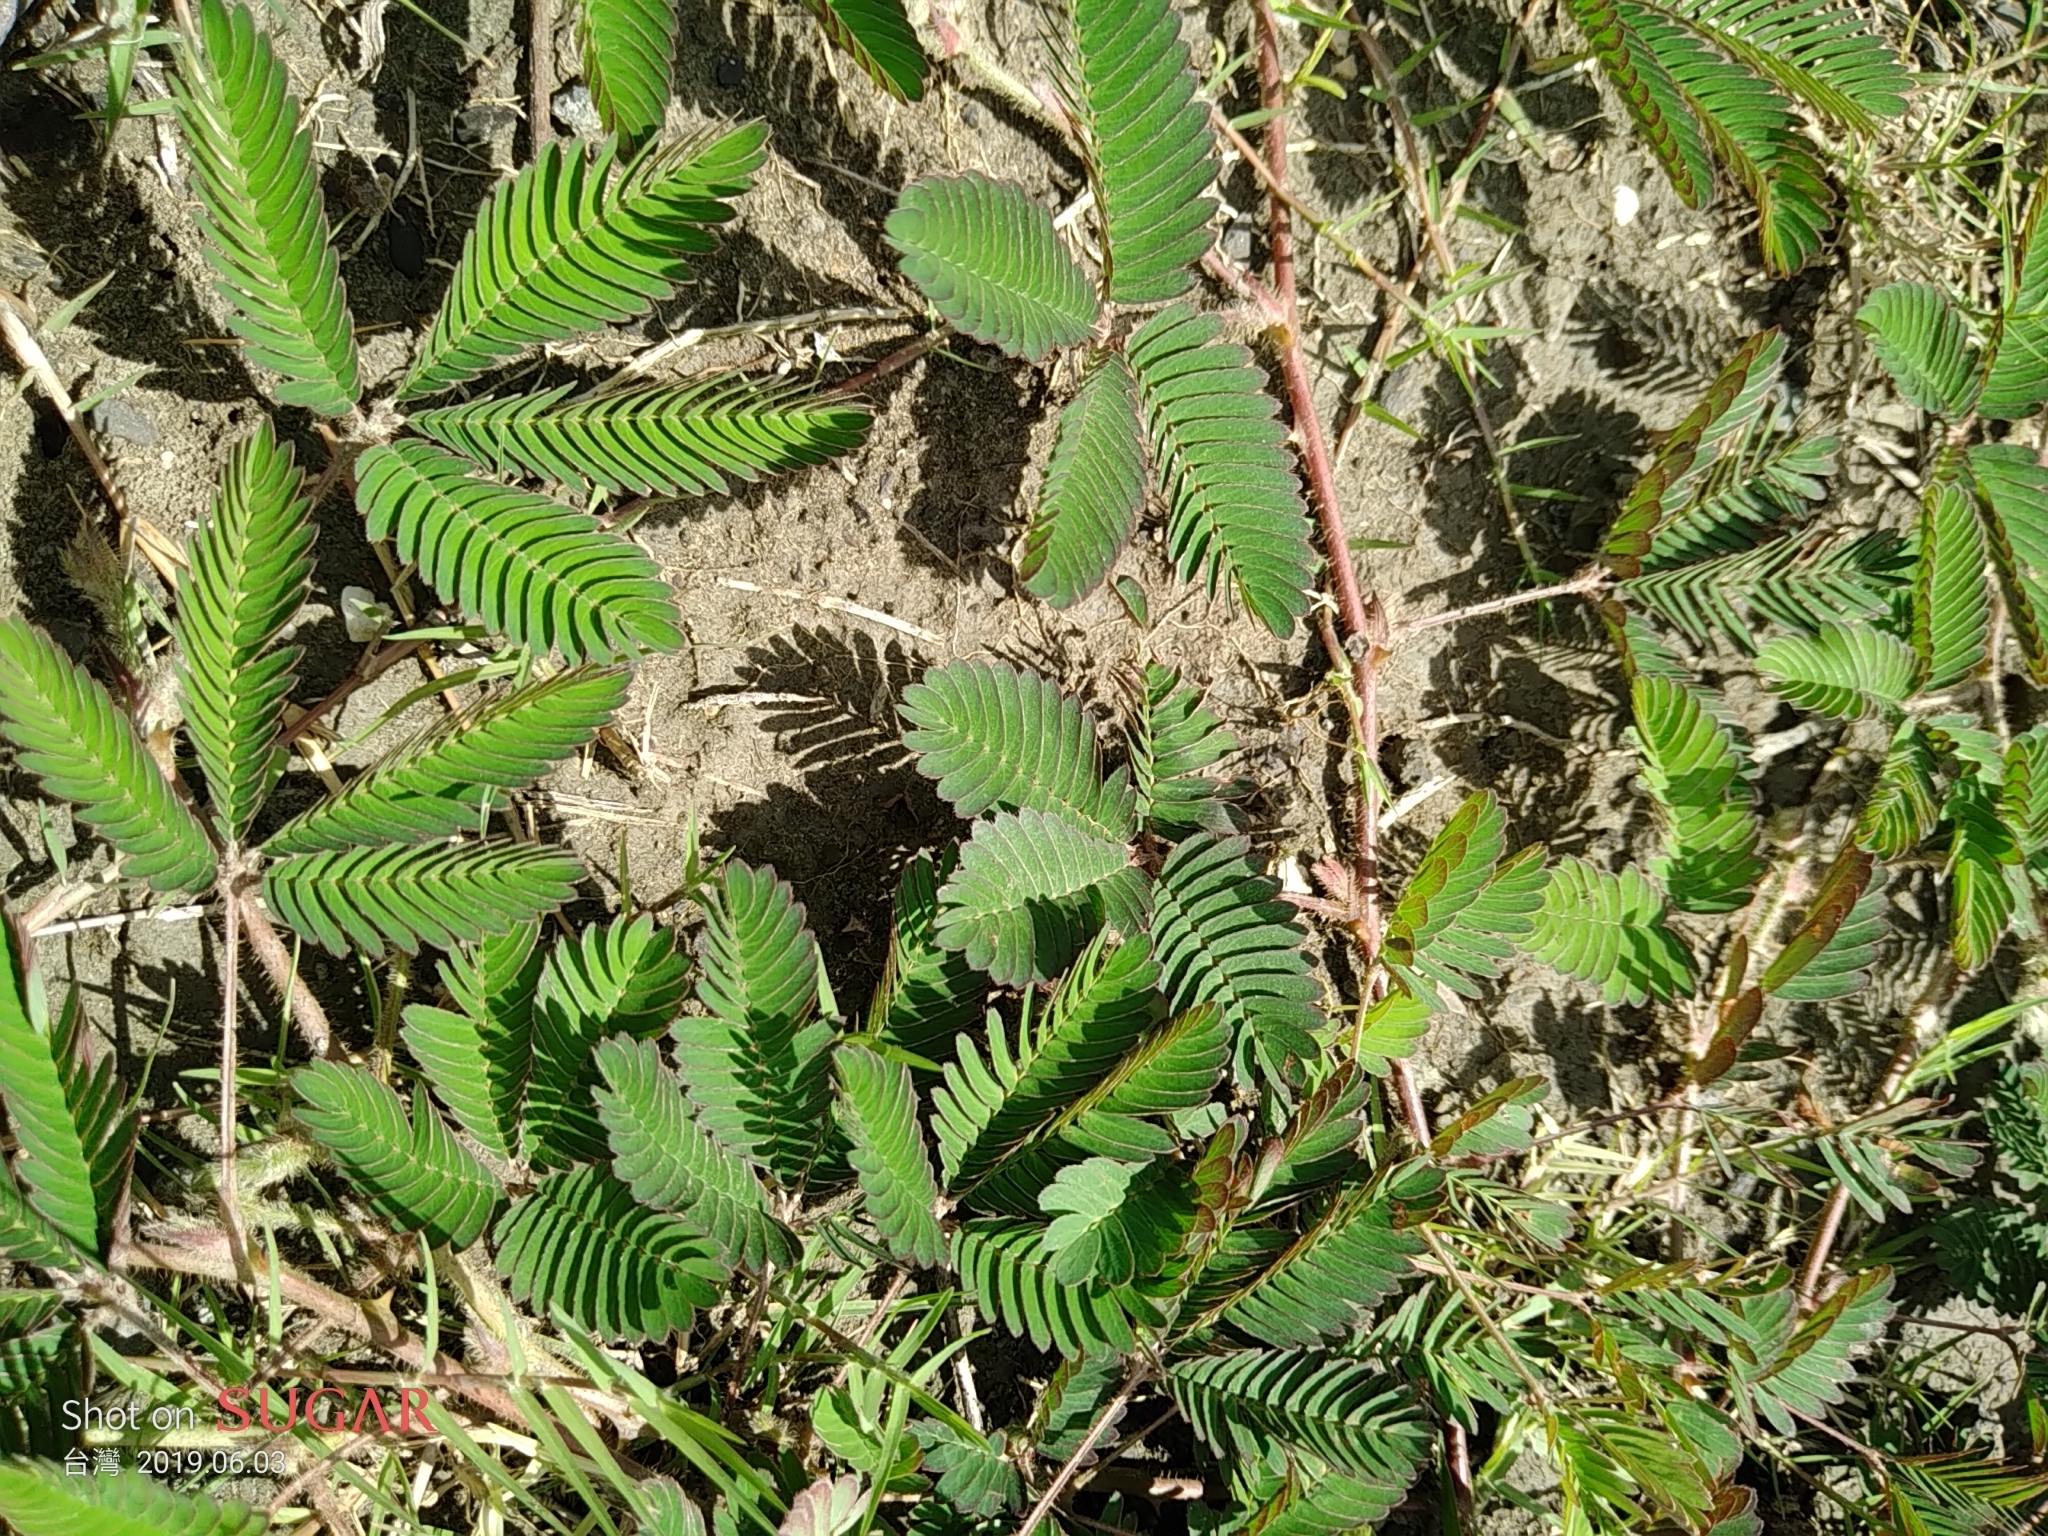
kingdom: Plantae
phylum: Tracheophyta
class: Magnoliopsida
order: Fabales
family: Fabaceae
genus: Mimosa
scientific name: Mimosa pudica
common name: Sensitive plant
